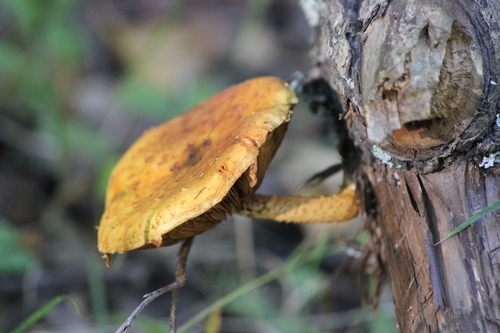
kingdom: Fungi
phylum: Basidiomycota
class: Agaricomycetes
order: Agaricales
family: Strophariaceae
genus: Pholiota
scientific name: Pholiota
